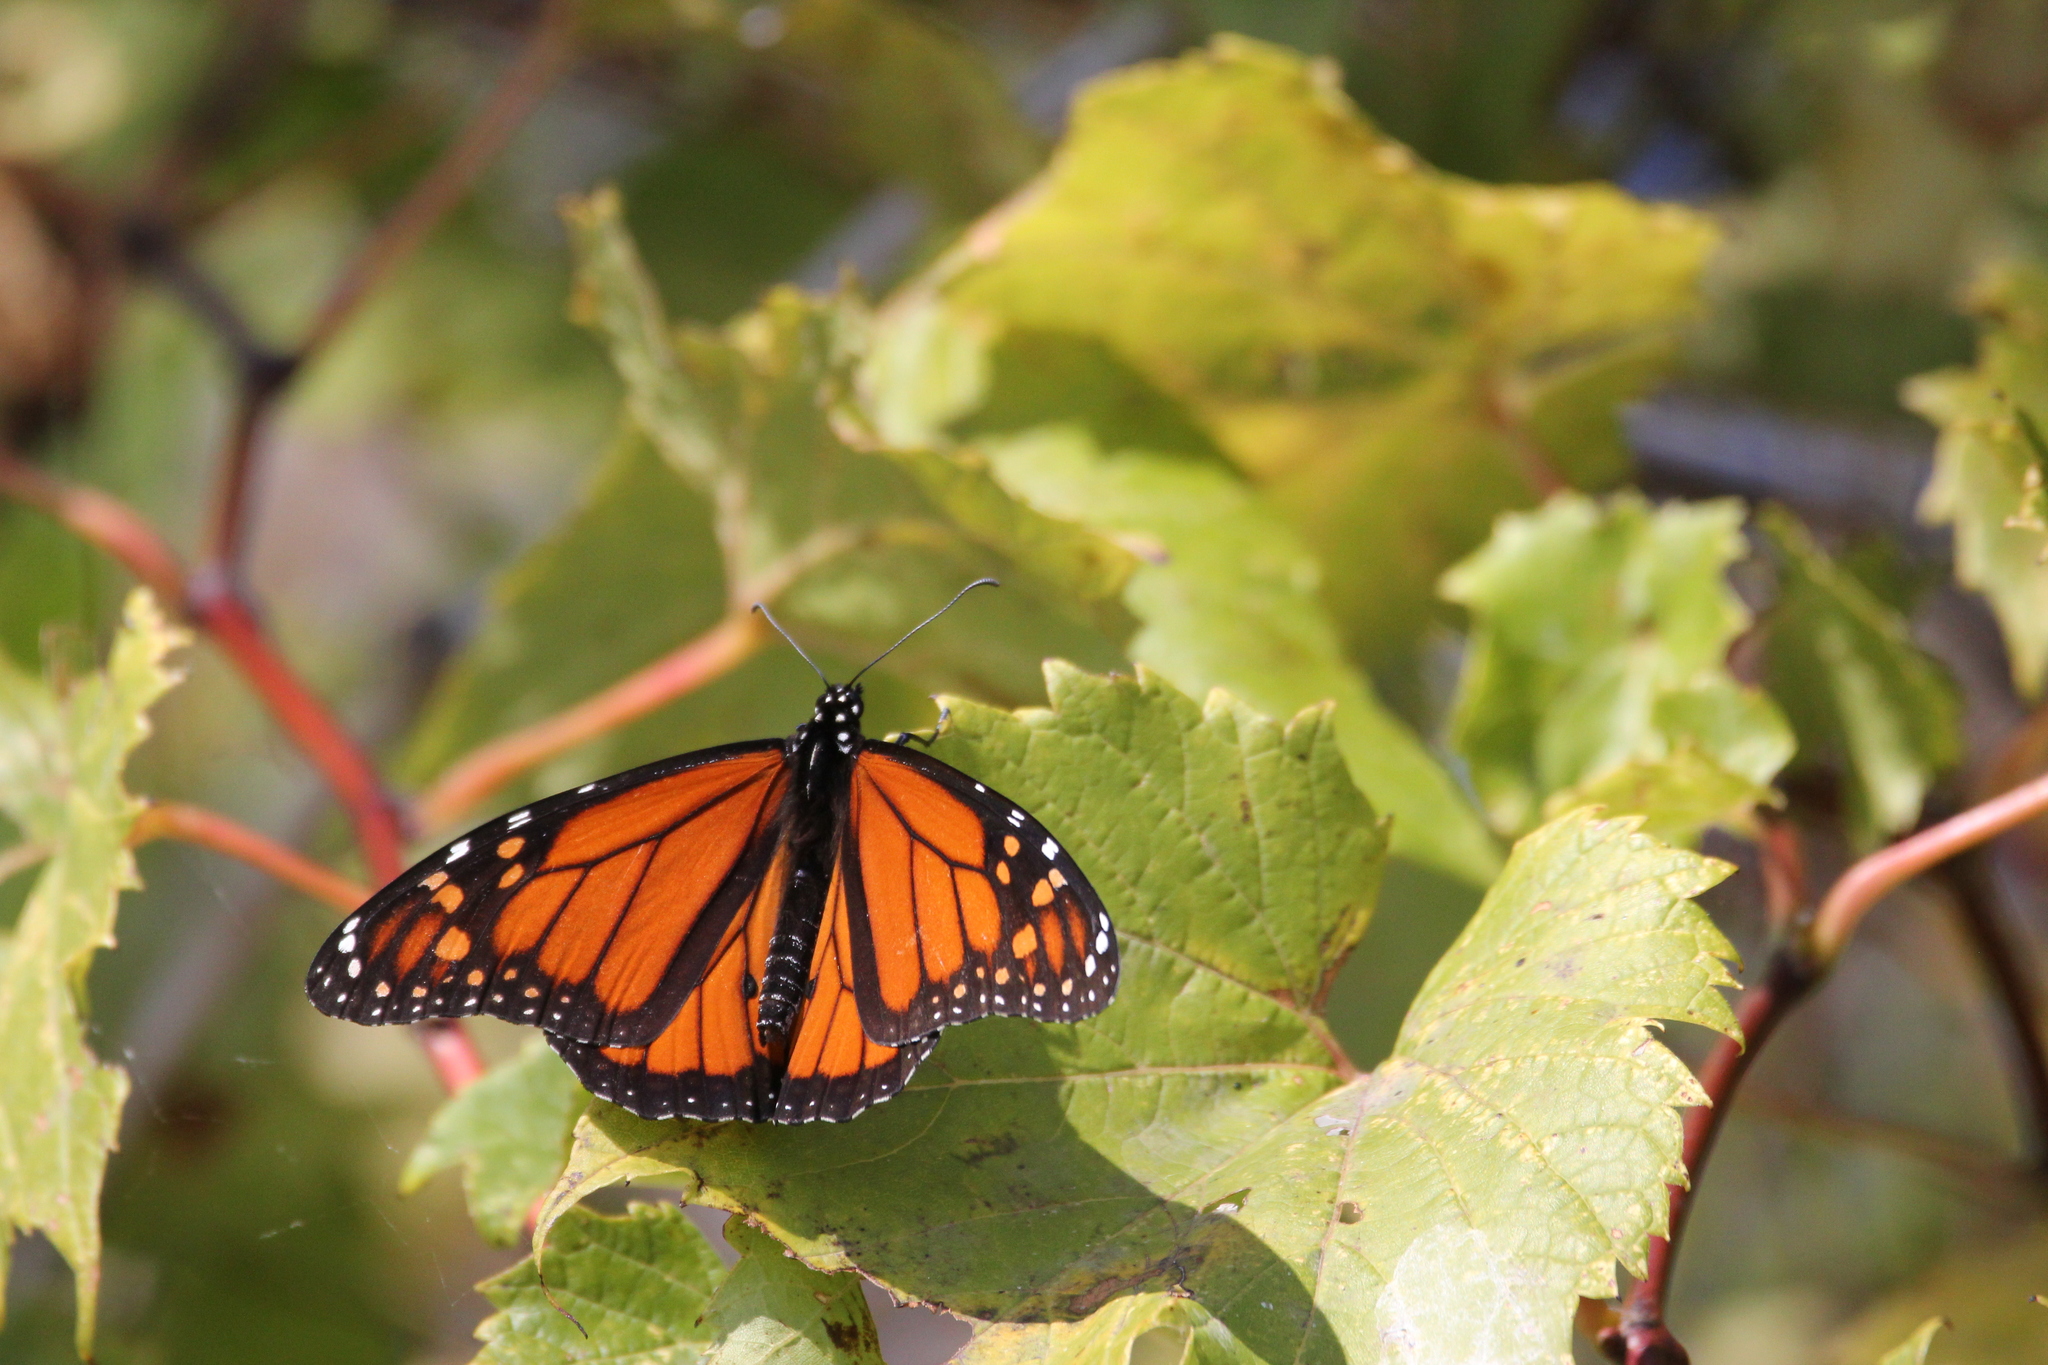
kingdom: Animalia
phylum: Arthropoda
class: Insecta
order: Lepidoptera
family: Nymphalidae
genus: Danaus
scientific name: Danaus plexippus
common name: Monarch
